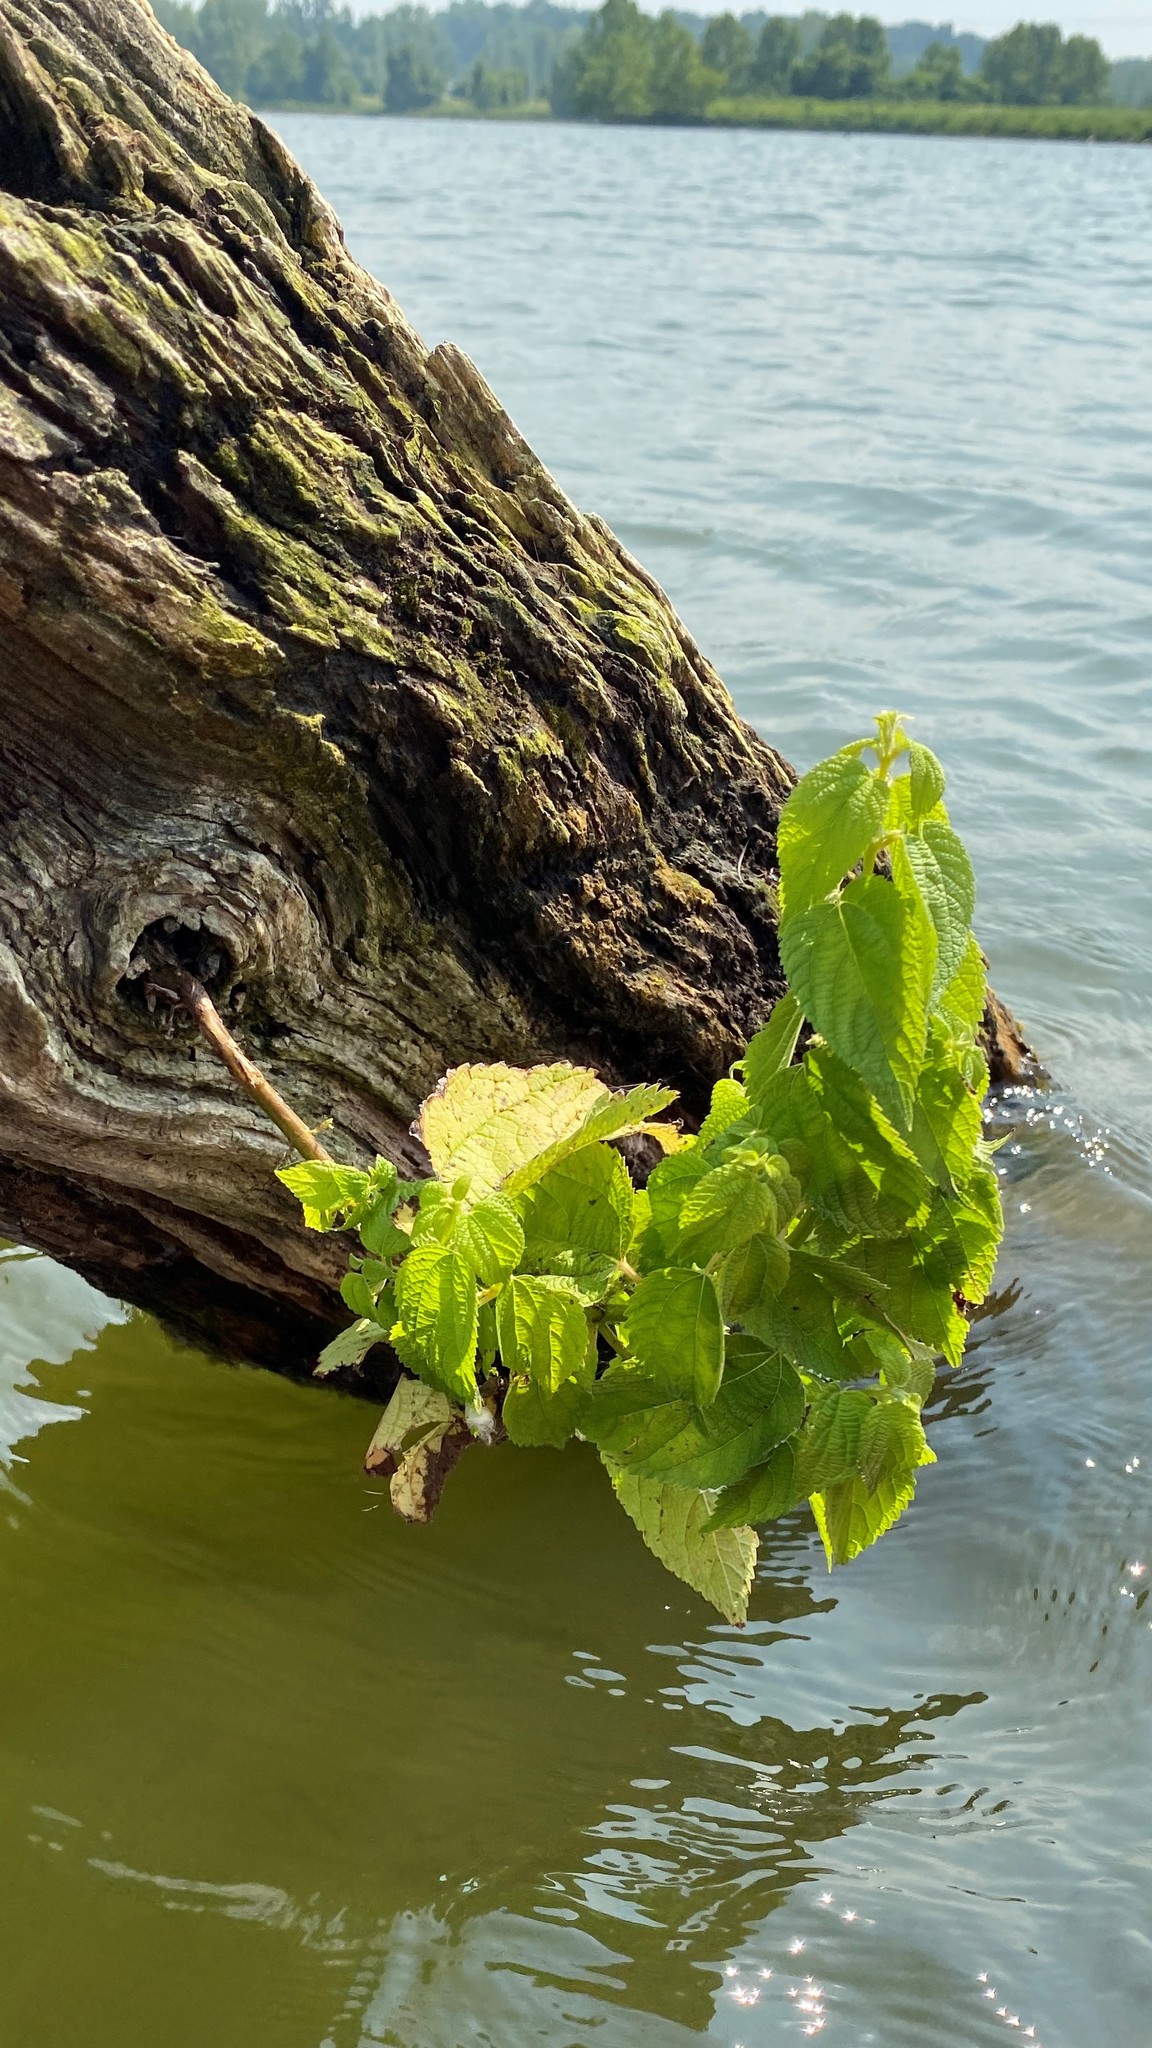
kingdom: Plantae
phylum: Tracheophyta
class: Magnoliopsida
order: Rosales
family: Urticaceae
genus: Boehmeria
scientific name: Boehmeria cylindrica
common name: Bog-hemp
